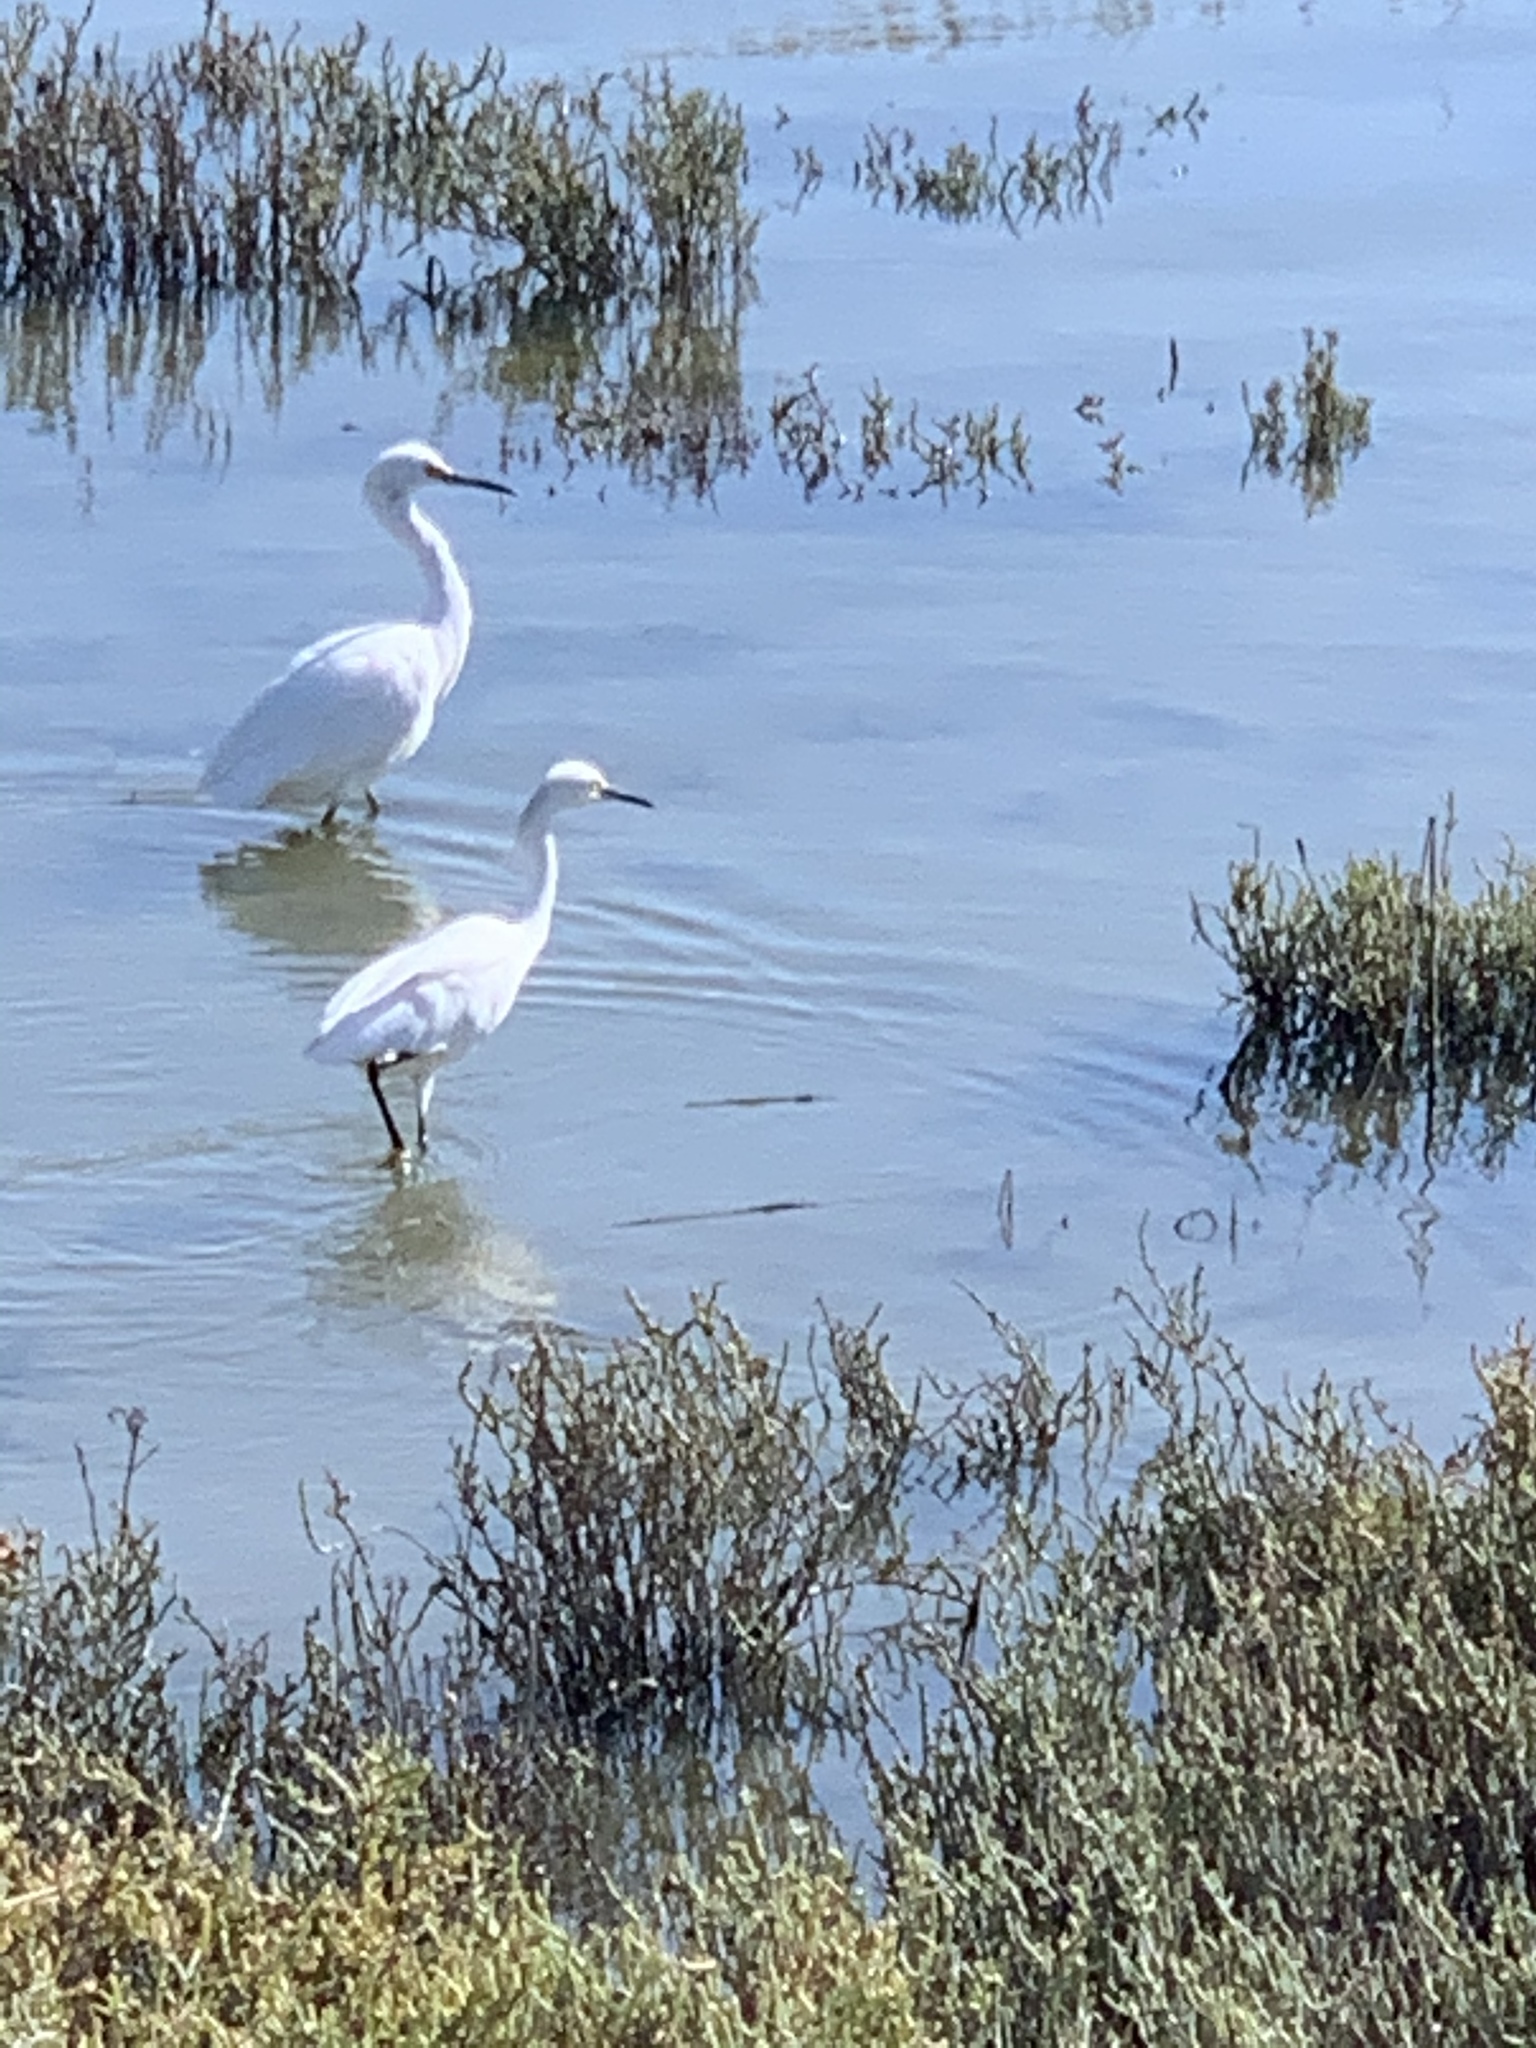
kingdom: Animalia
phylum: Chordata
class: Aves
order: Pelecaniformes
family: Ardeidae
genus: Egretta
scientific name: Egretta thula
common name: Snowy egret
